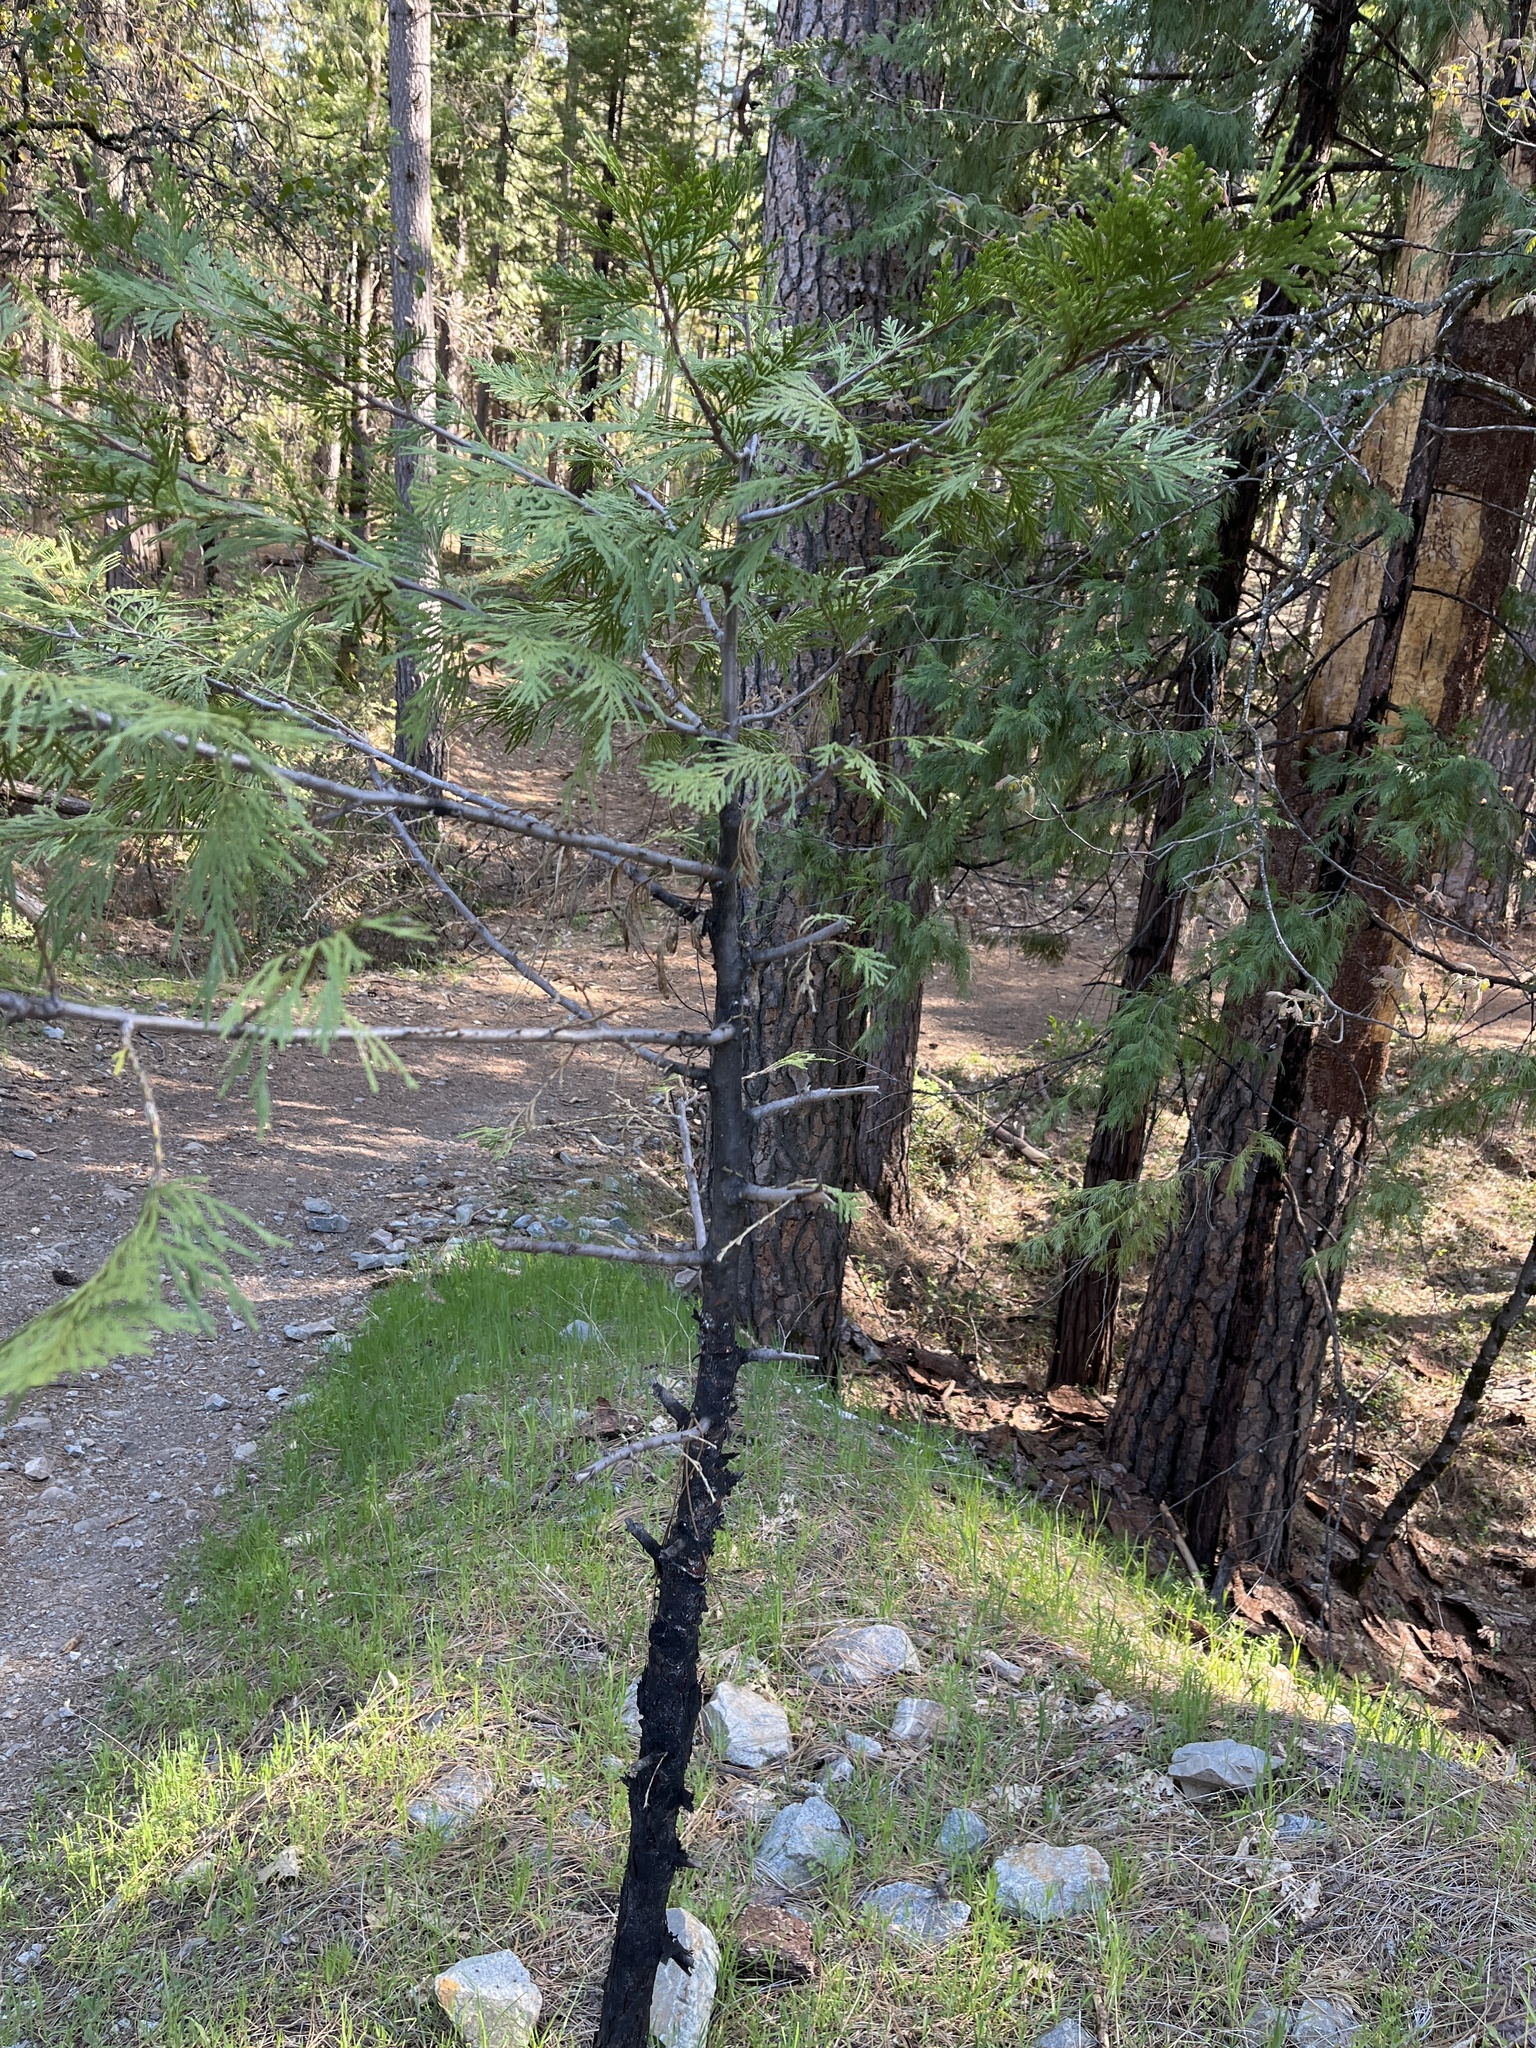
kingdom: Plantae
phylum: Tracheophyta
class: Pinopsida
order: Pinales
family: Cupressaceae
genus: Calocedrus
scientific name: Calocedrus decurrens
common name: Californian incense-cedar
